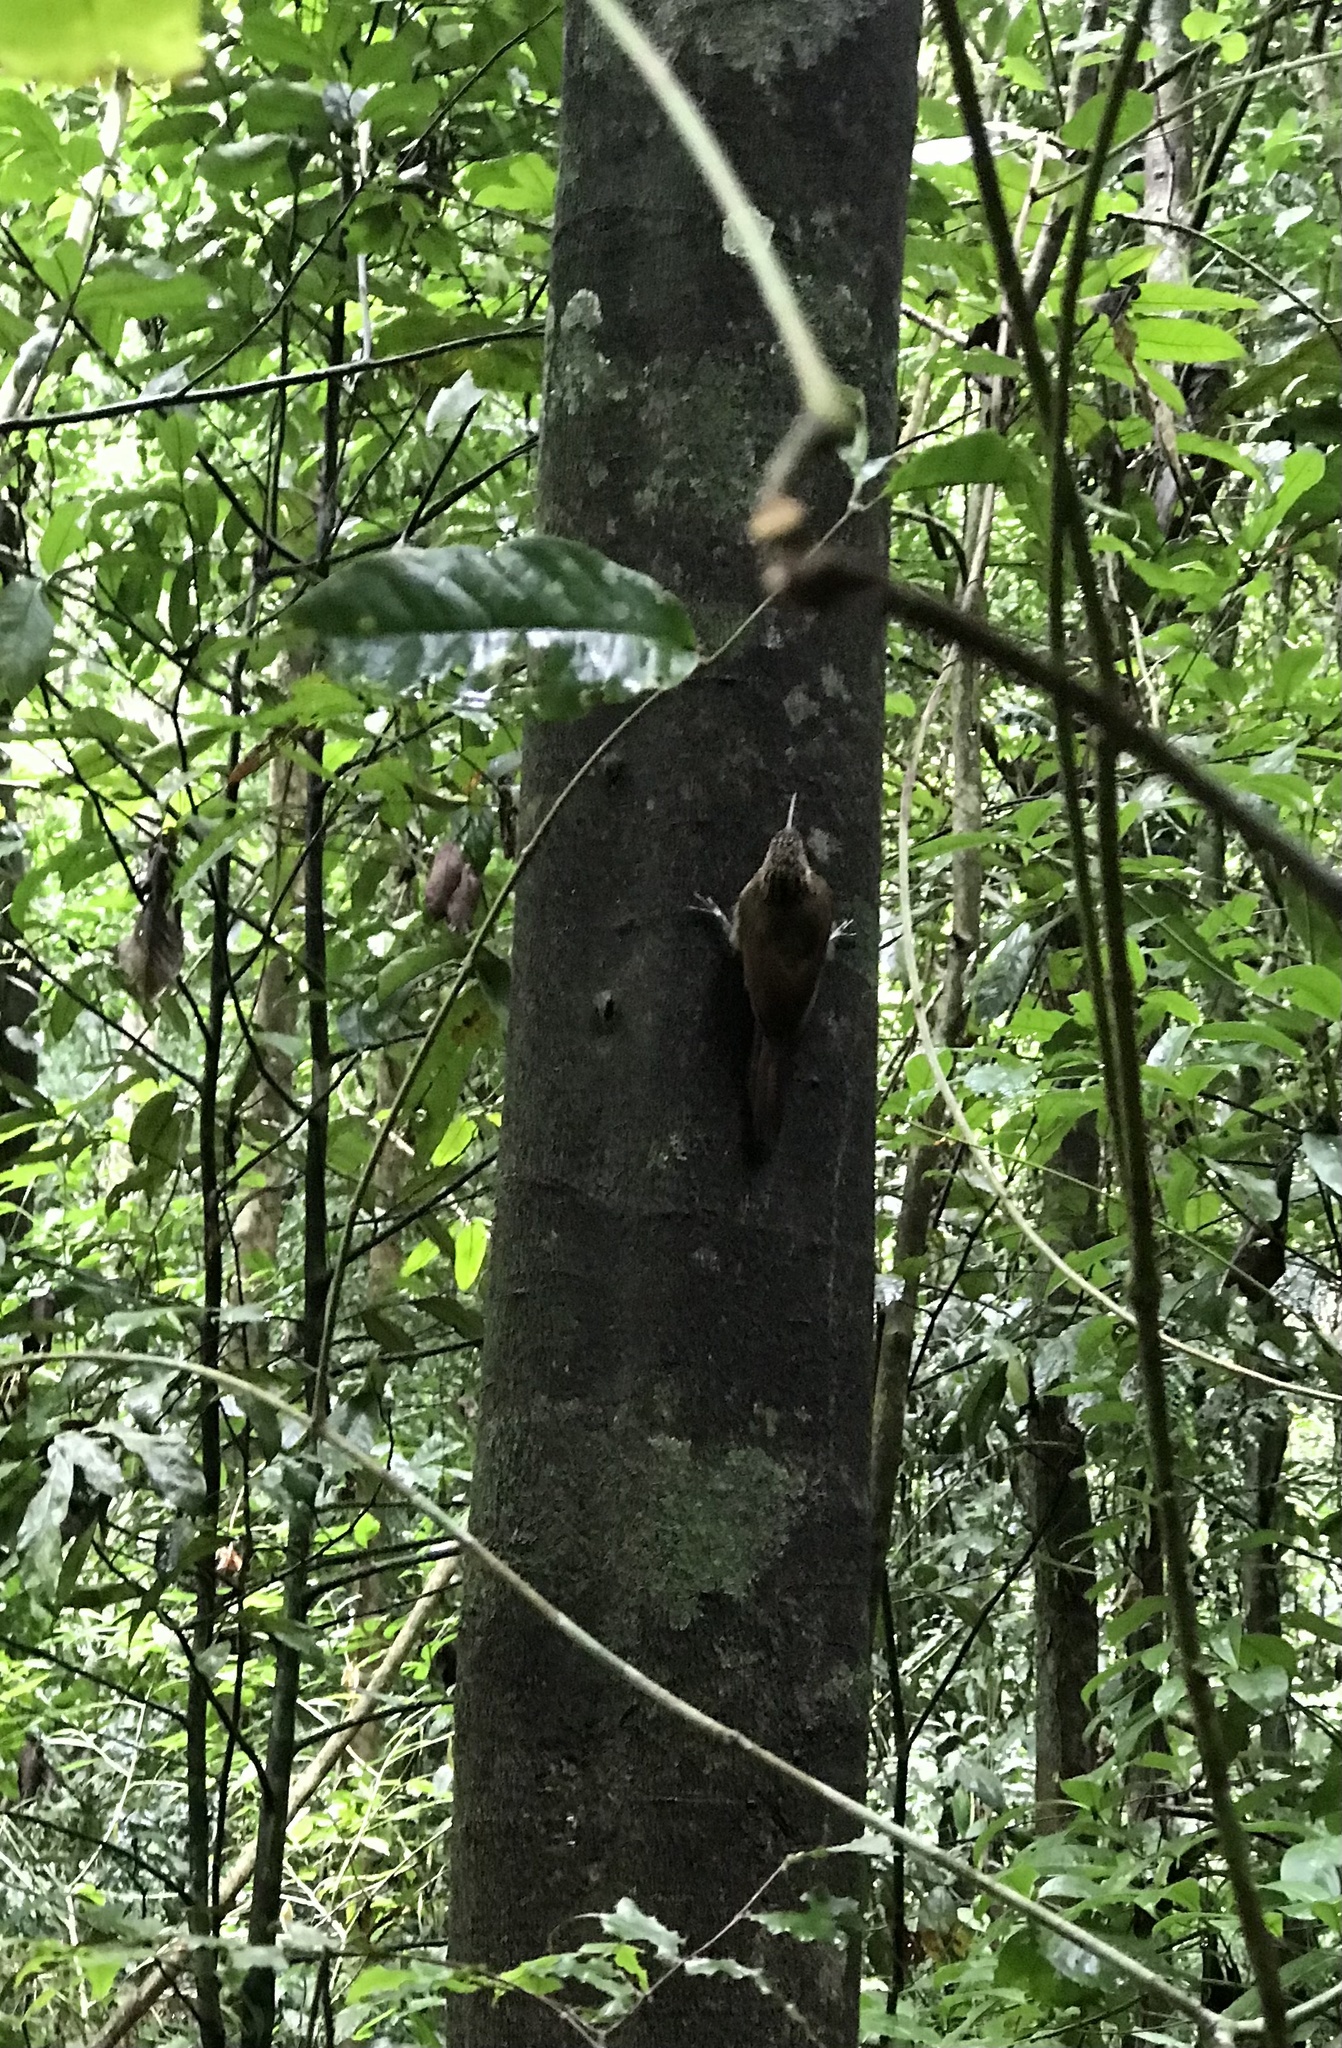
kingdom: Animalia
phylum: Chordata
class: Aves
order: Passeriformes
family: Furnariidae
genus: Xiphorhynchus
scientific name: Xiphorhynchus susurrans
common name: Cocoa woodcreeper
